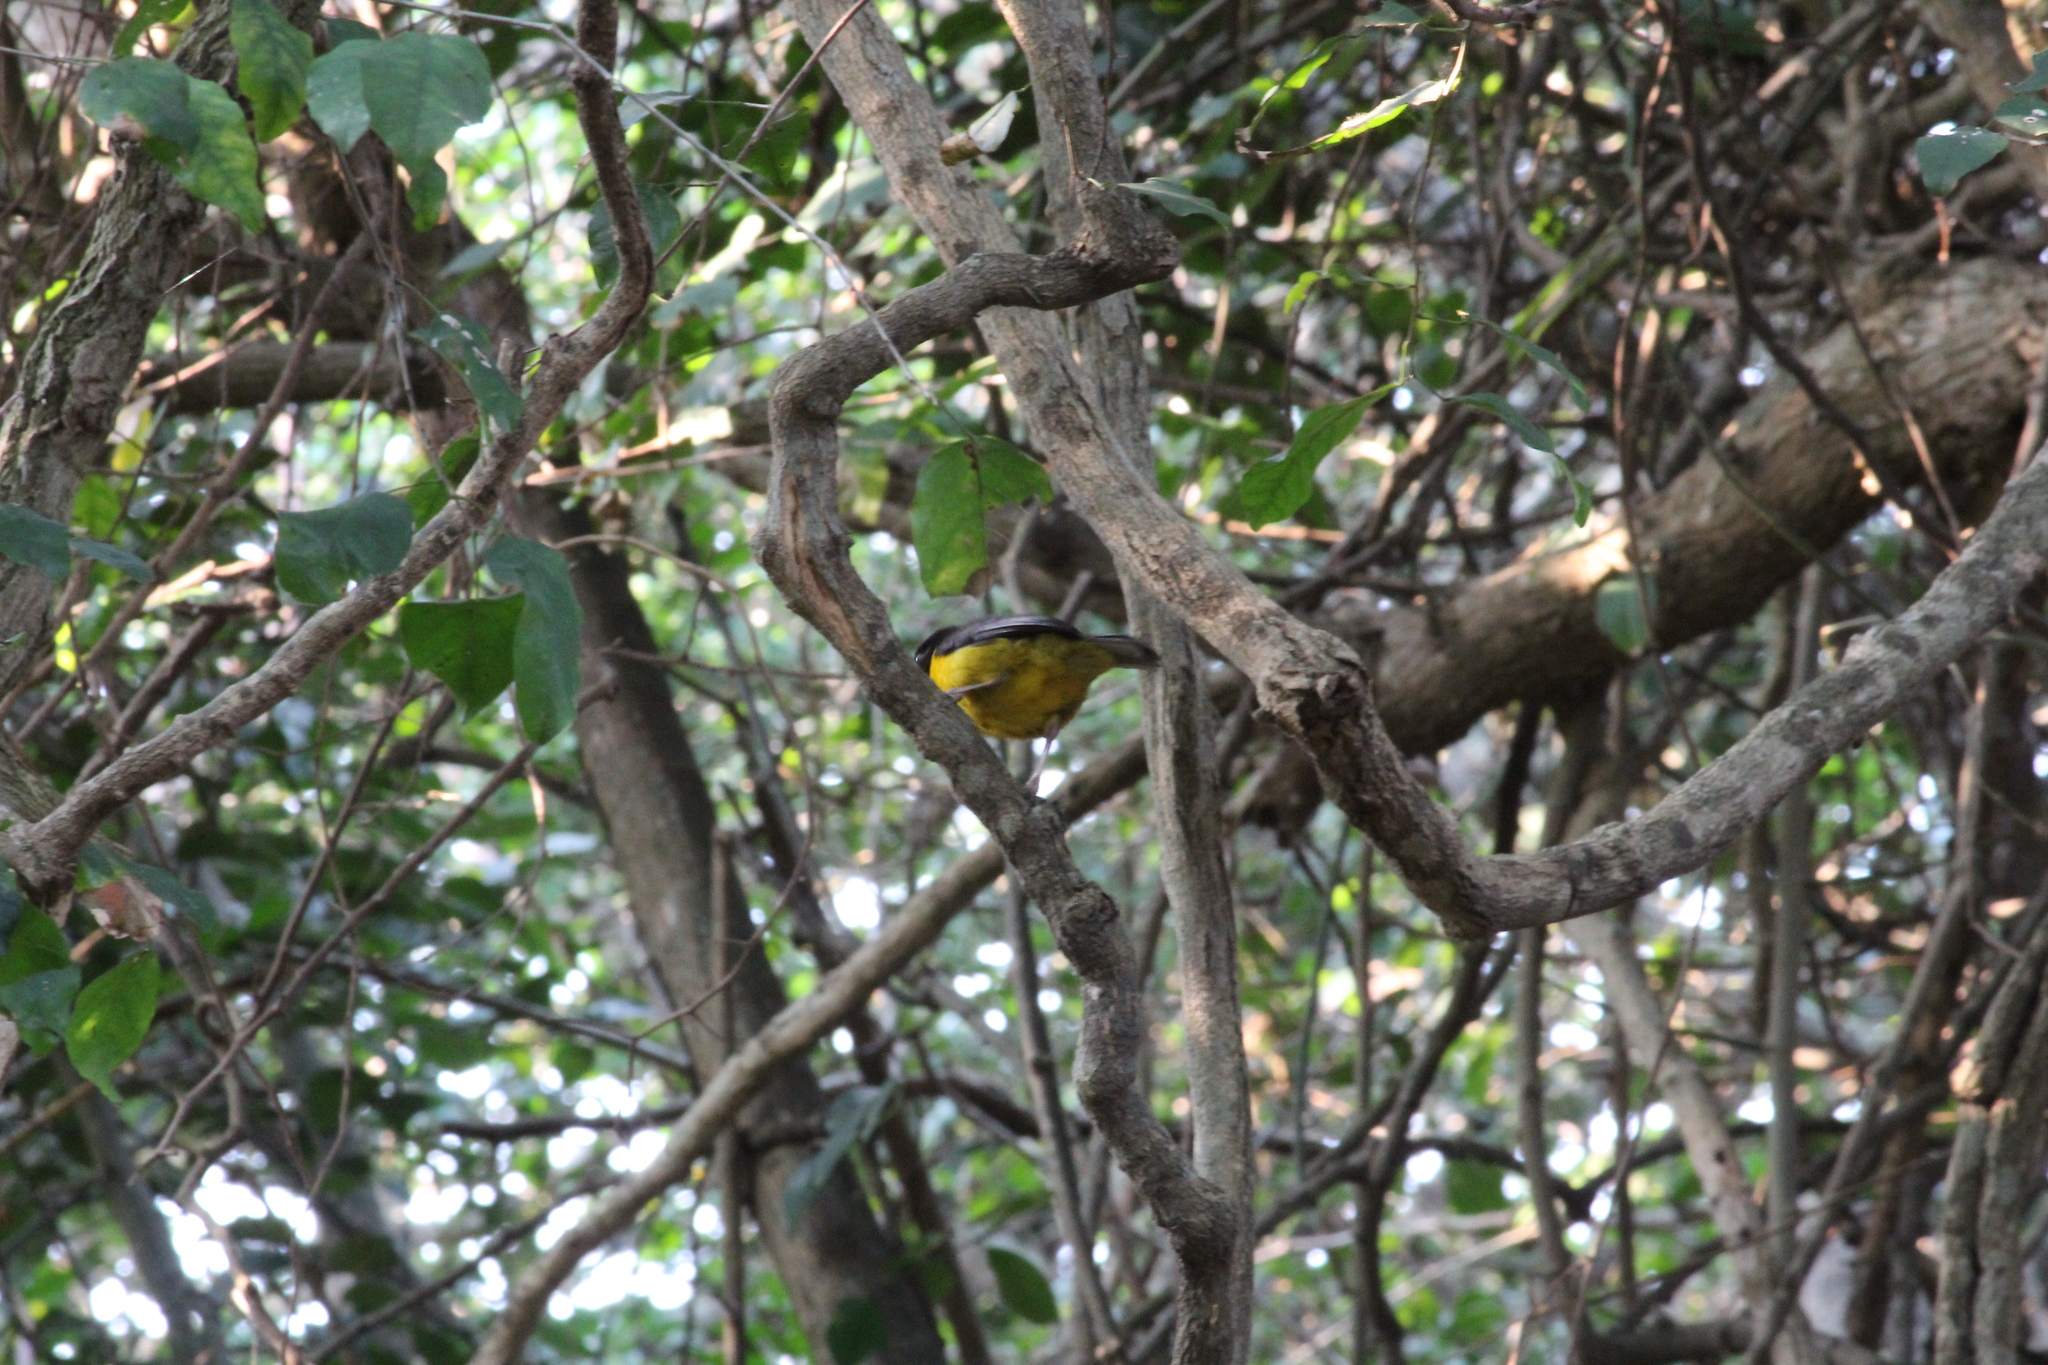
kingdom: Animalia
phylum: Chordata
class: Aves
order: Passeriformes
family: Ploceidae
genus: Ploceus
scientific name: Ploceus bicolor
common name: Dark-backed weaver
